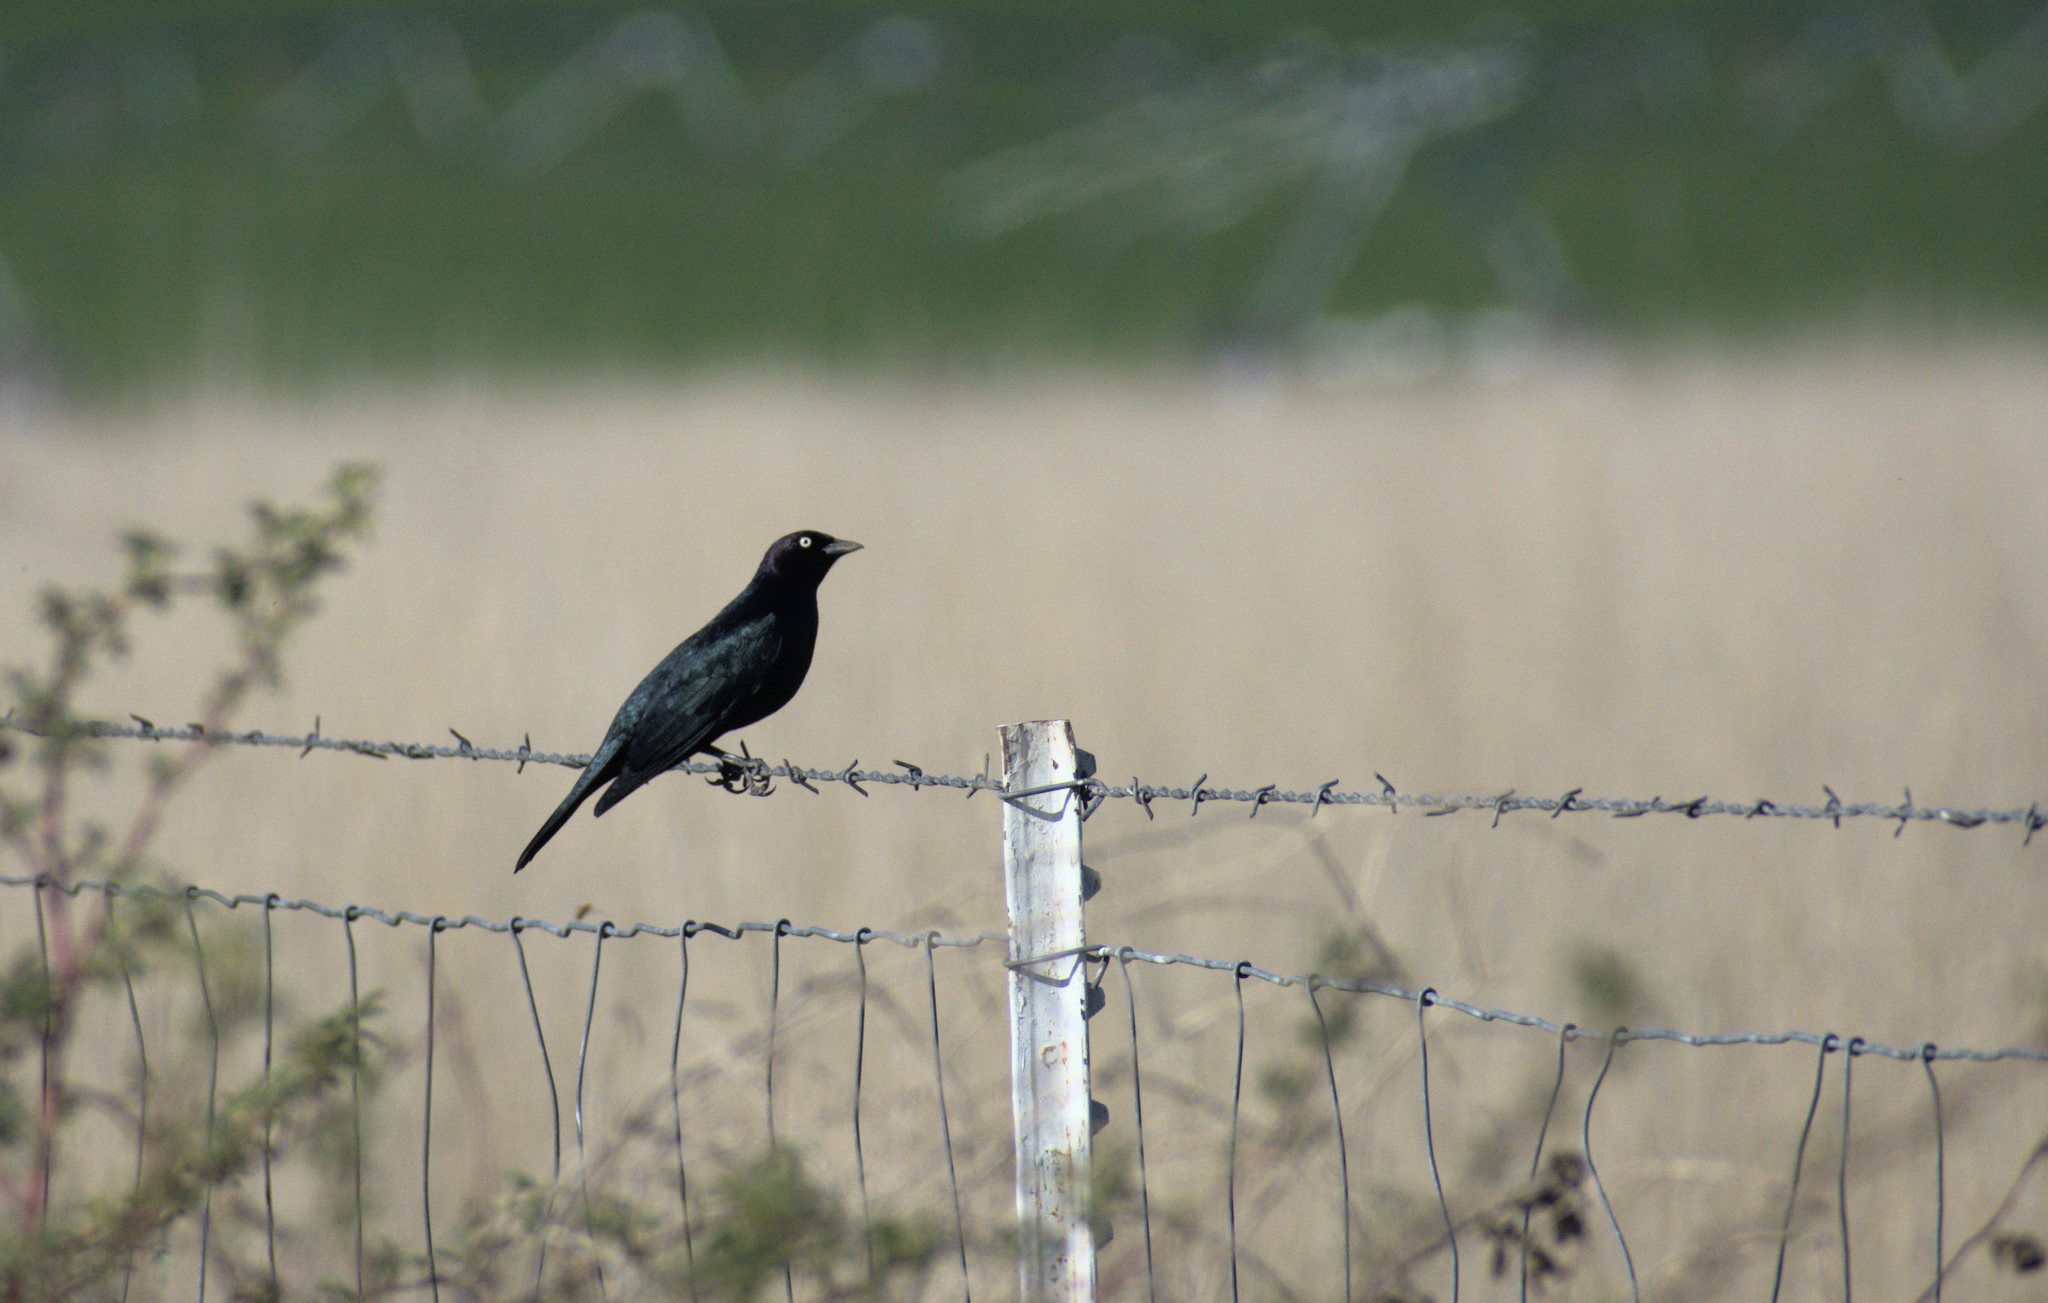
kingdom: Animalia
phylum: Chordata
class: Aves
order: Passeriformes
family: Icteridae
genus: Euphagus
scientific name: Euphagus cyanocephalus
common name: Brewer's blackbird
